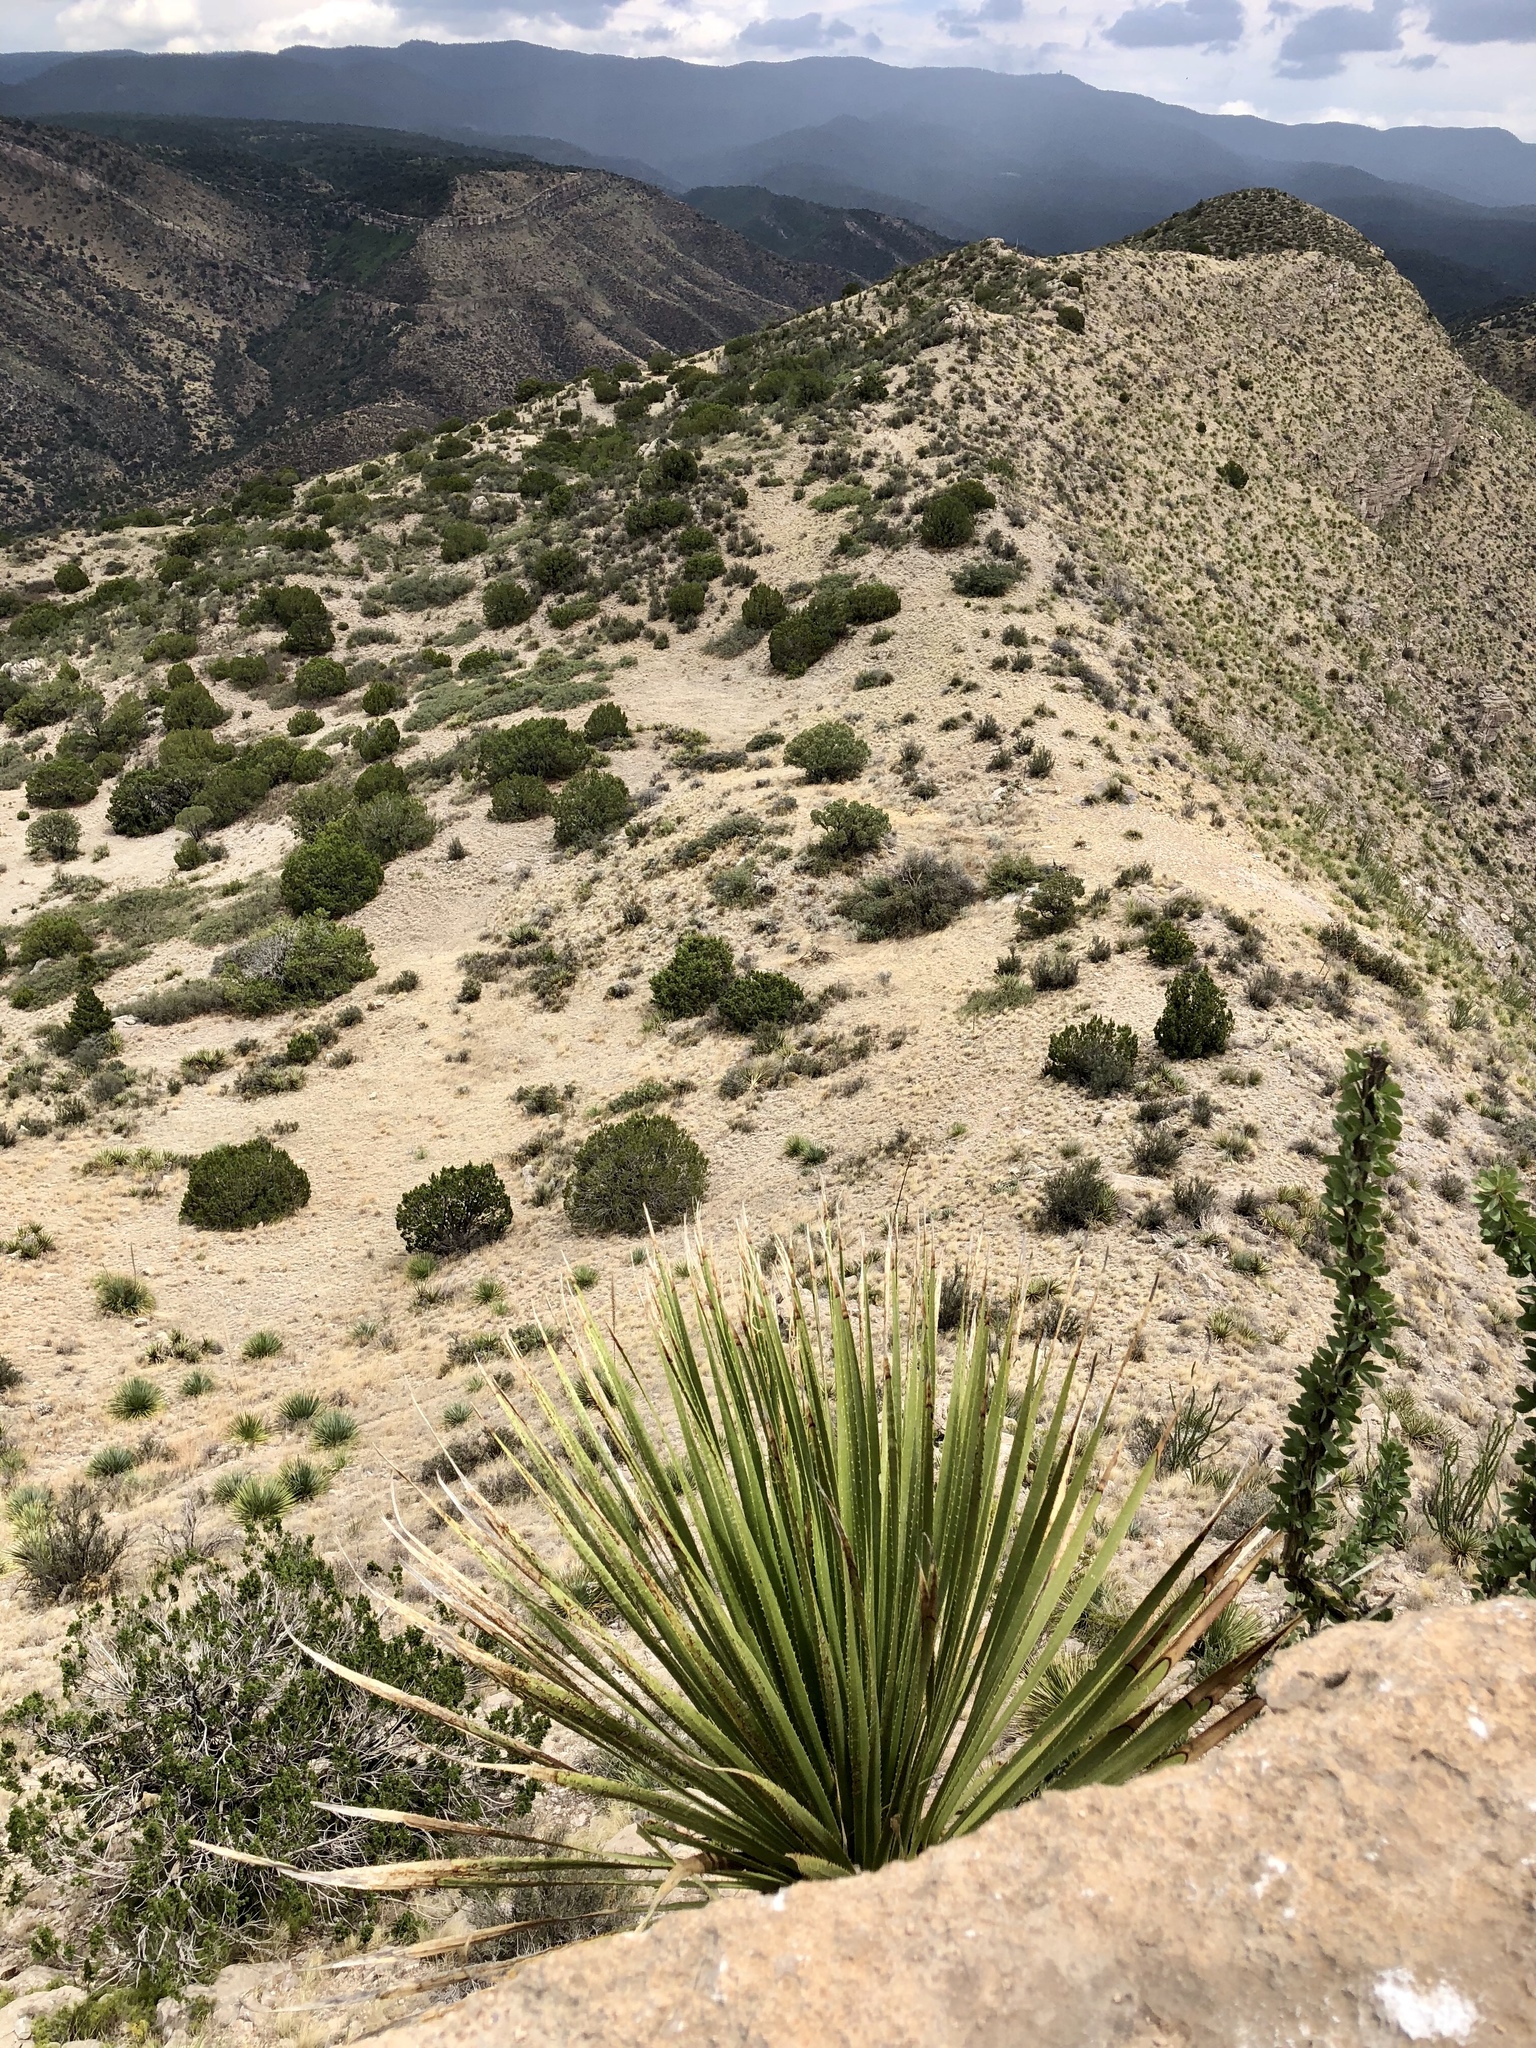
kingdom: Plantae
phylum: Tracheophyta
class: Liliopsida
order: Asparagales
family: Asparagaceae
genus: Dasylirion
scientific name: Dasylirion wheeleri
